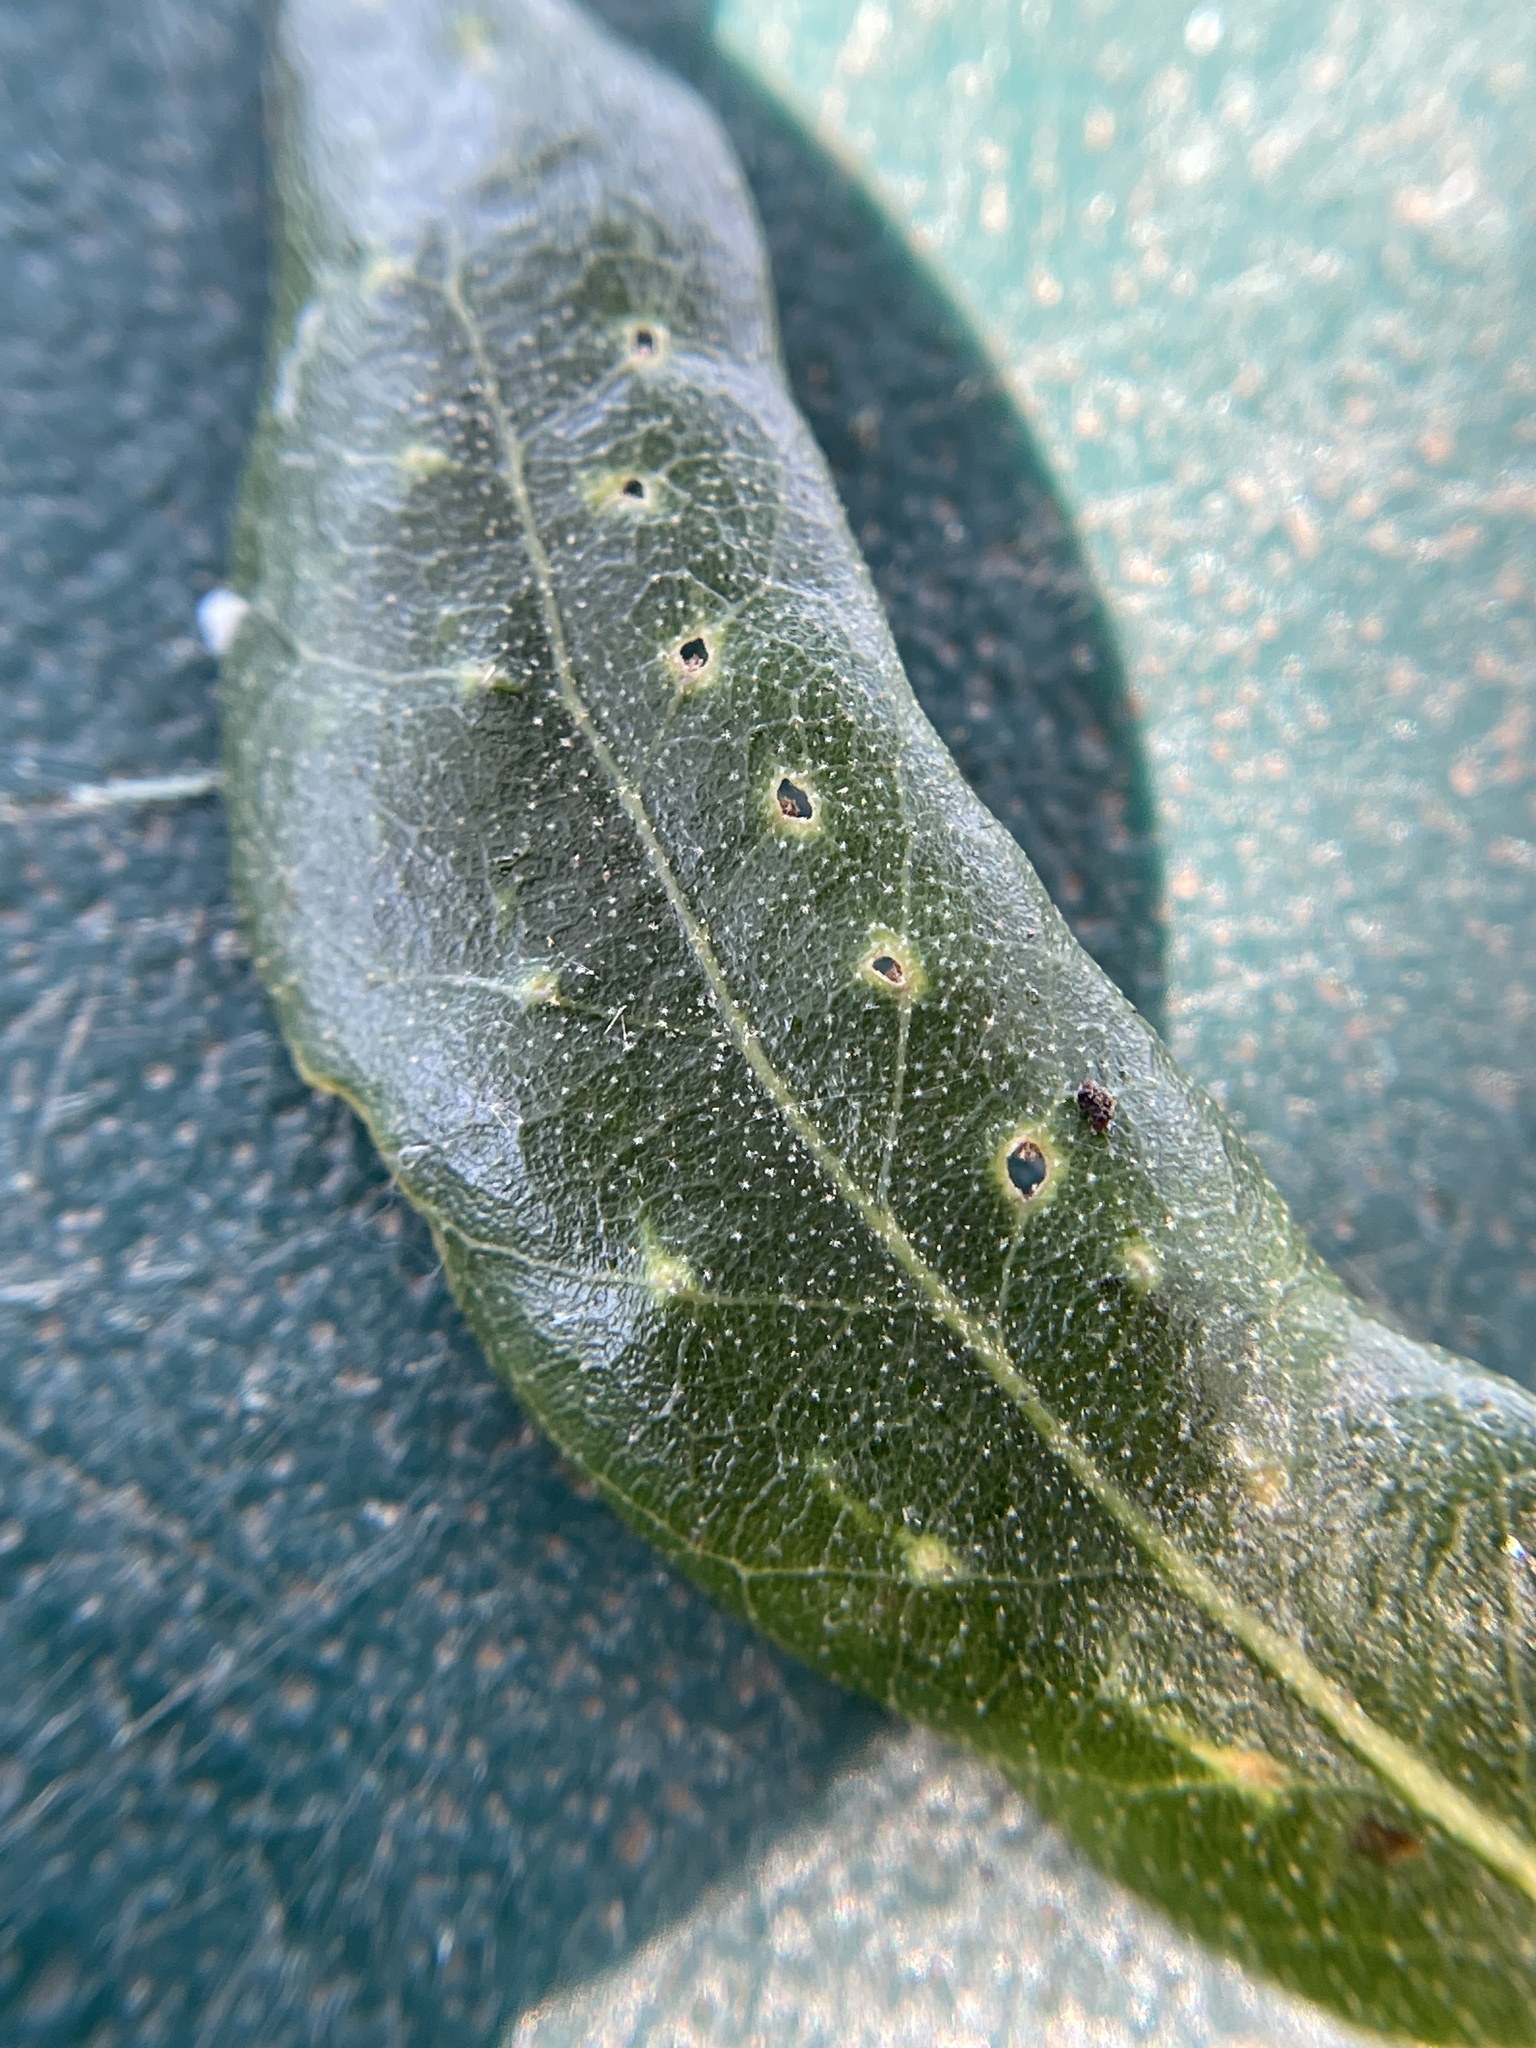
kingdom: Animalia
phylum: Arthropoda
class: Insecta
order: Hymenoptera
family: Cynipidae
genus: Belonocnema
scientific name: Belonocnema kinseyi
